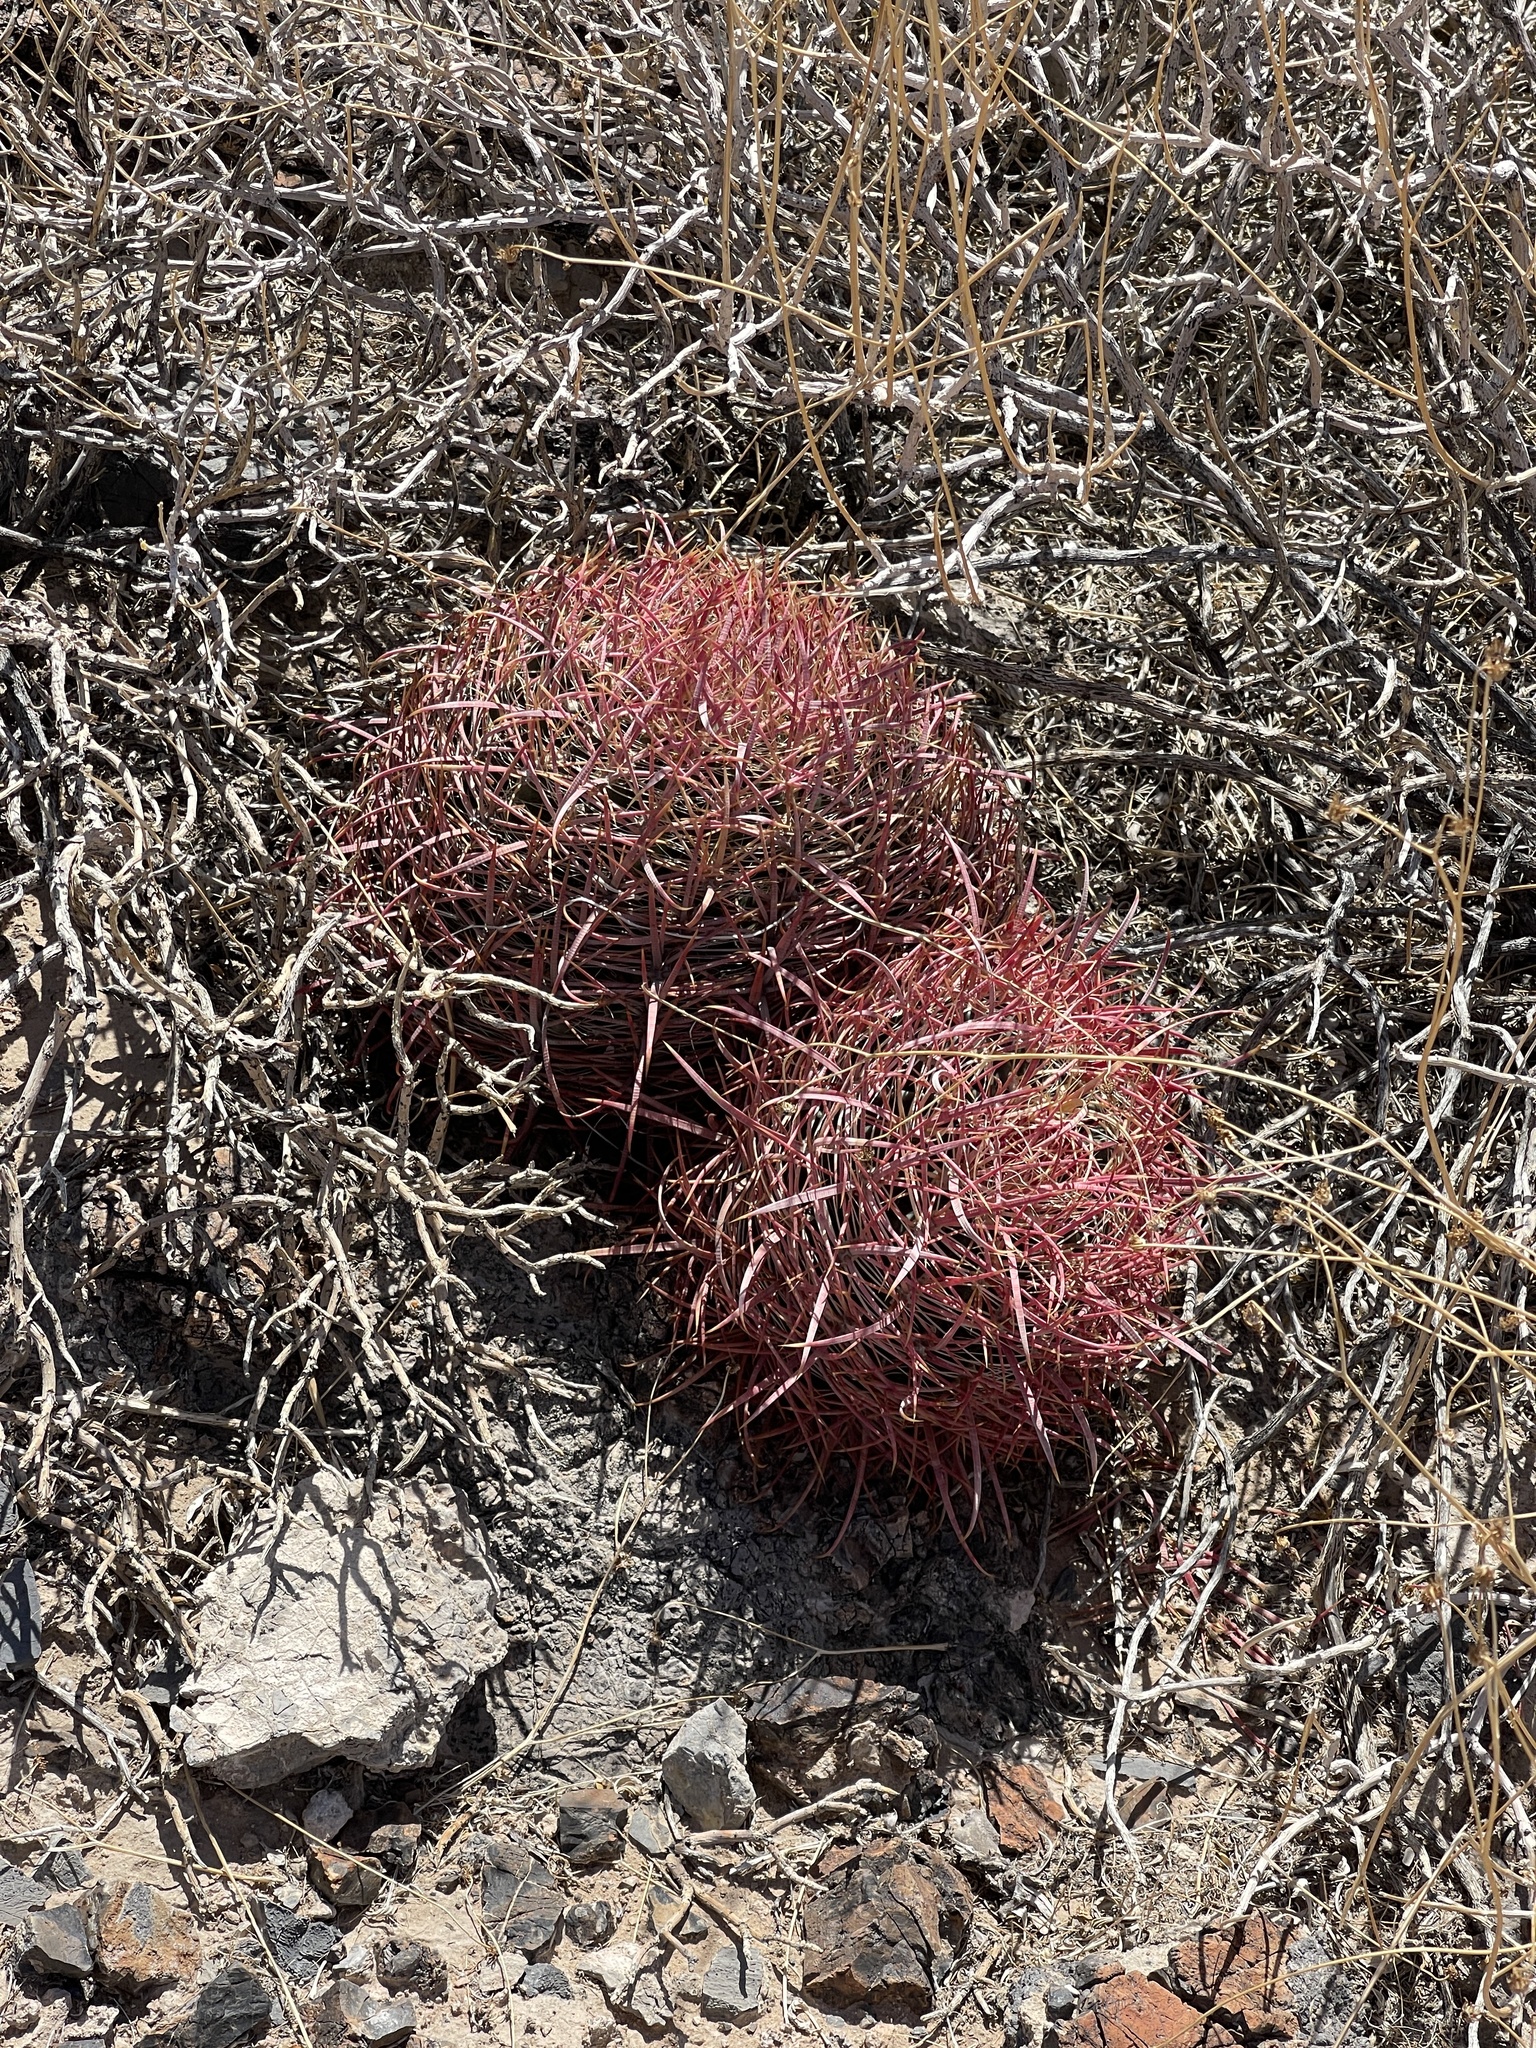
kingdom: Plantae
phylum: Tracheophyta
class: Magnoliopsida
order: Caryophyllales
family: Cactaceae
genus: Ferocactus
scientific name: Ferocactus cylindraceus
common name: California barrel cactus
